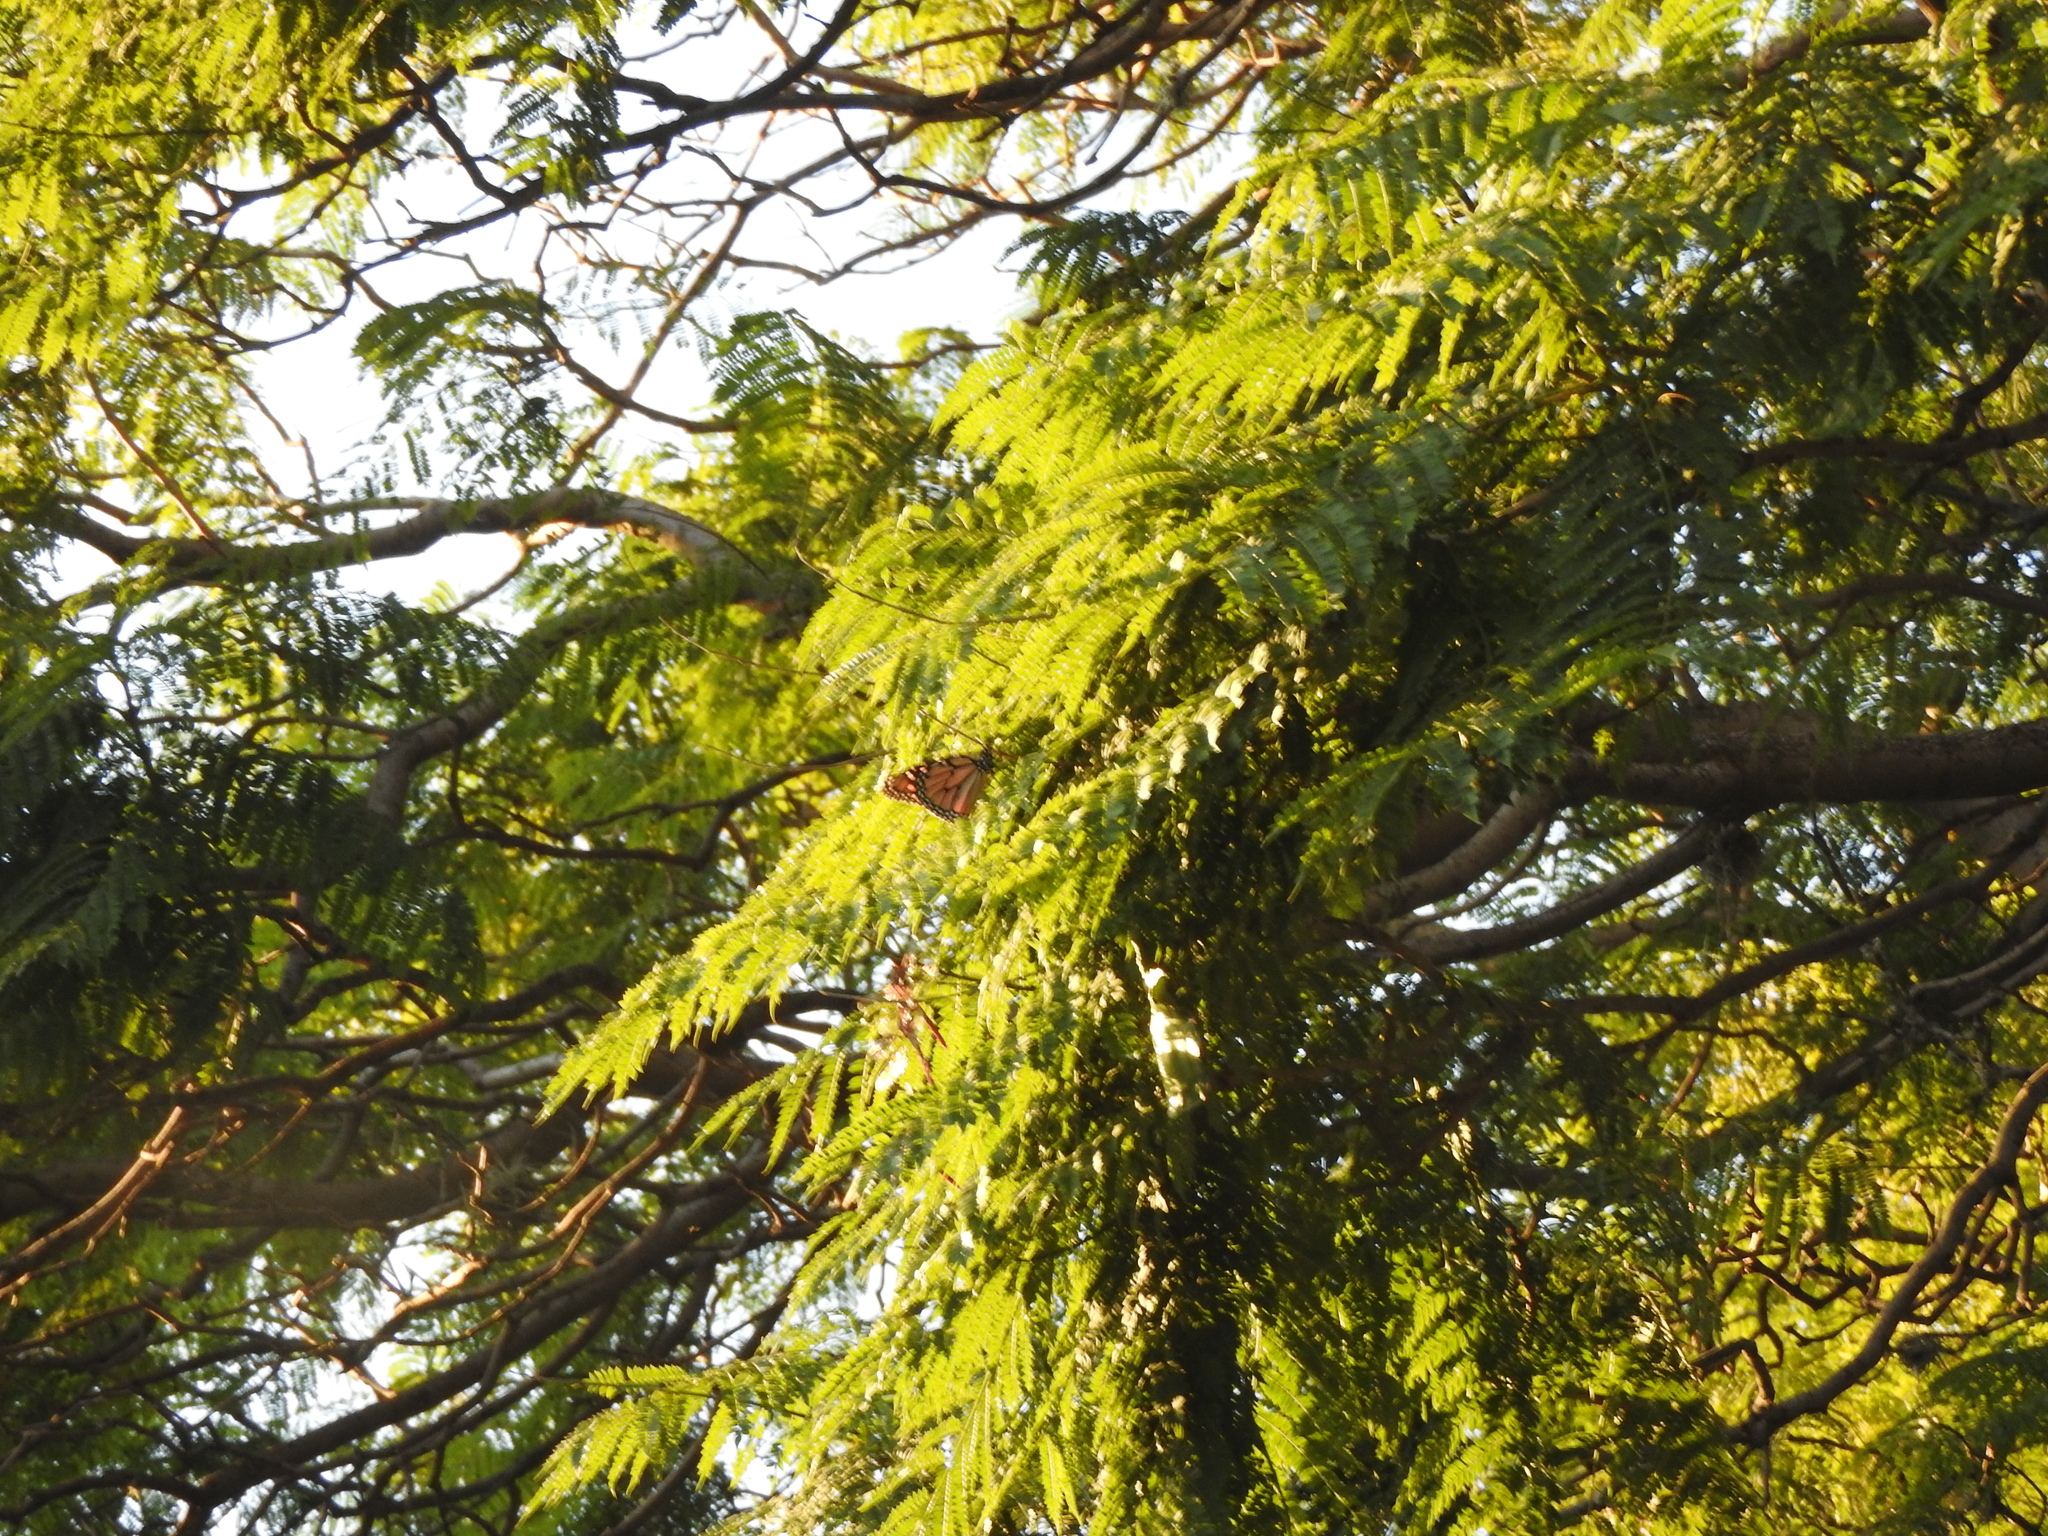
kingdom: Animalia
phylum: Arthropoda
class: Insecta
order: Lepidoptera
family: Nymphalidae
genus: Danaus
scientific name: Danaus plexippus
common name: Monarch
